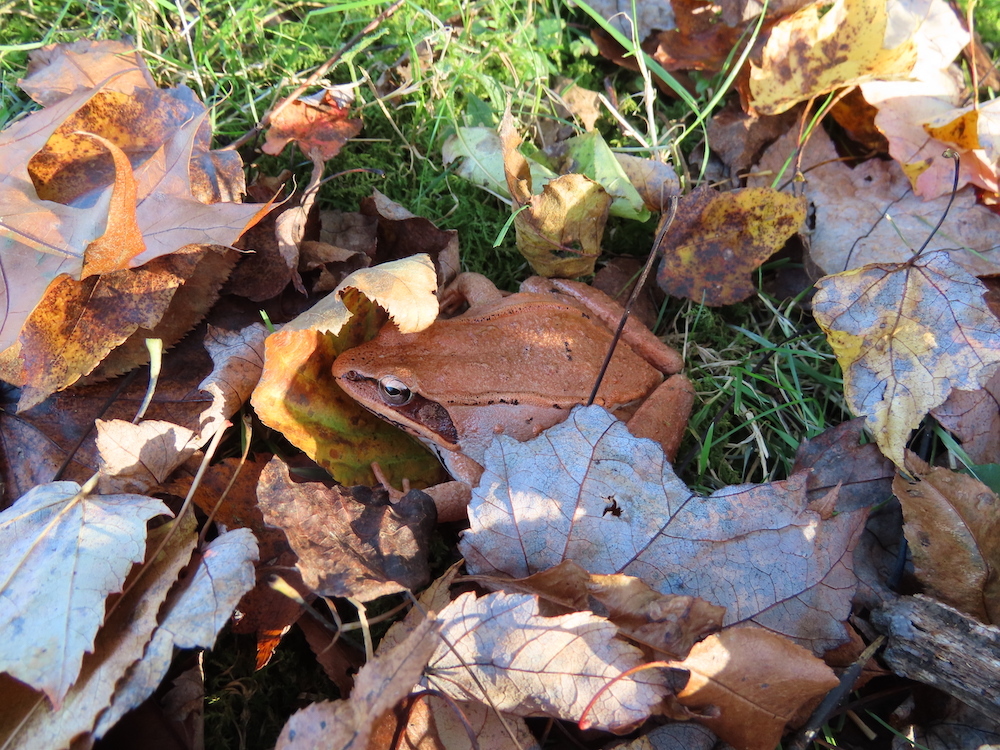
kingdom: Animalia
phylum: Chordata
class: Amphibia
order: Anura
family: Ranidae
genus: Lithobates
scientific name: Lithobates sylvaticus
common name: Wood frog
